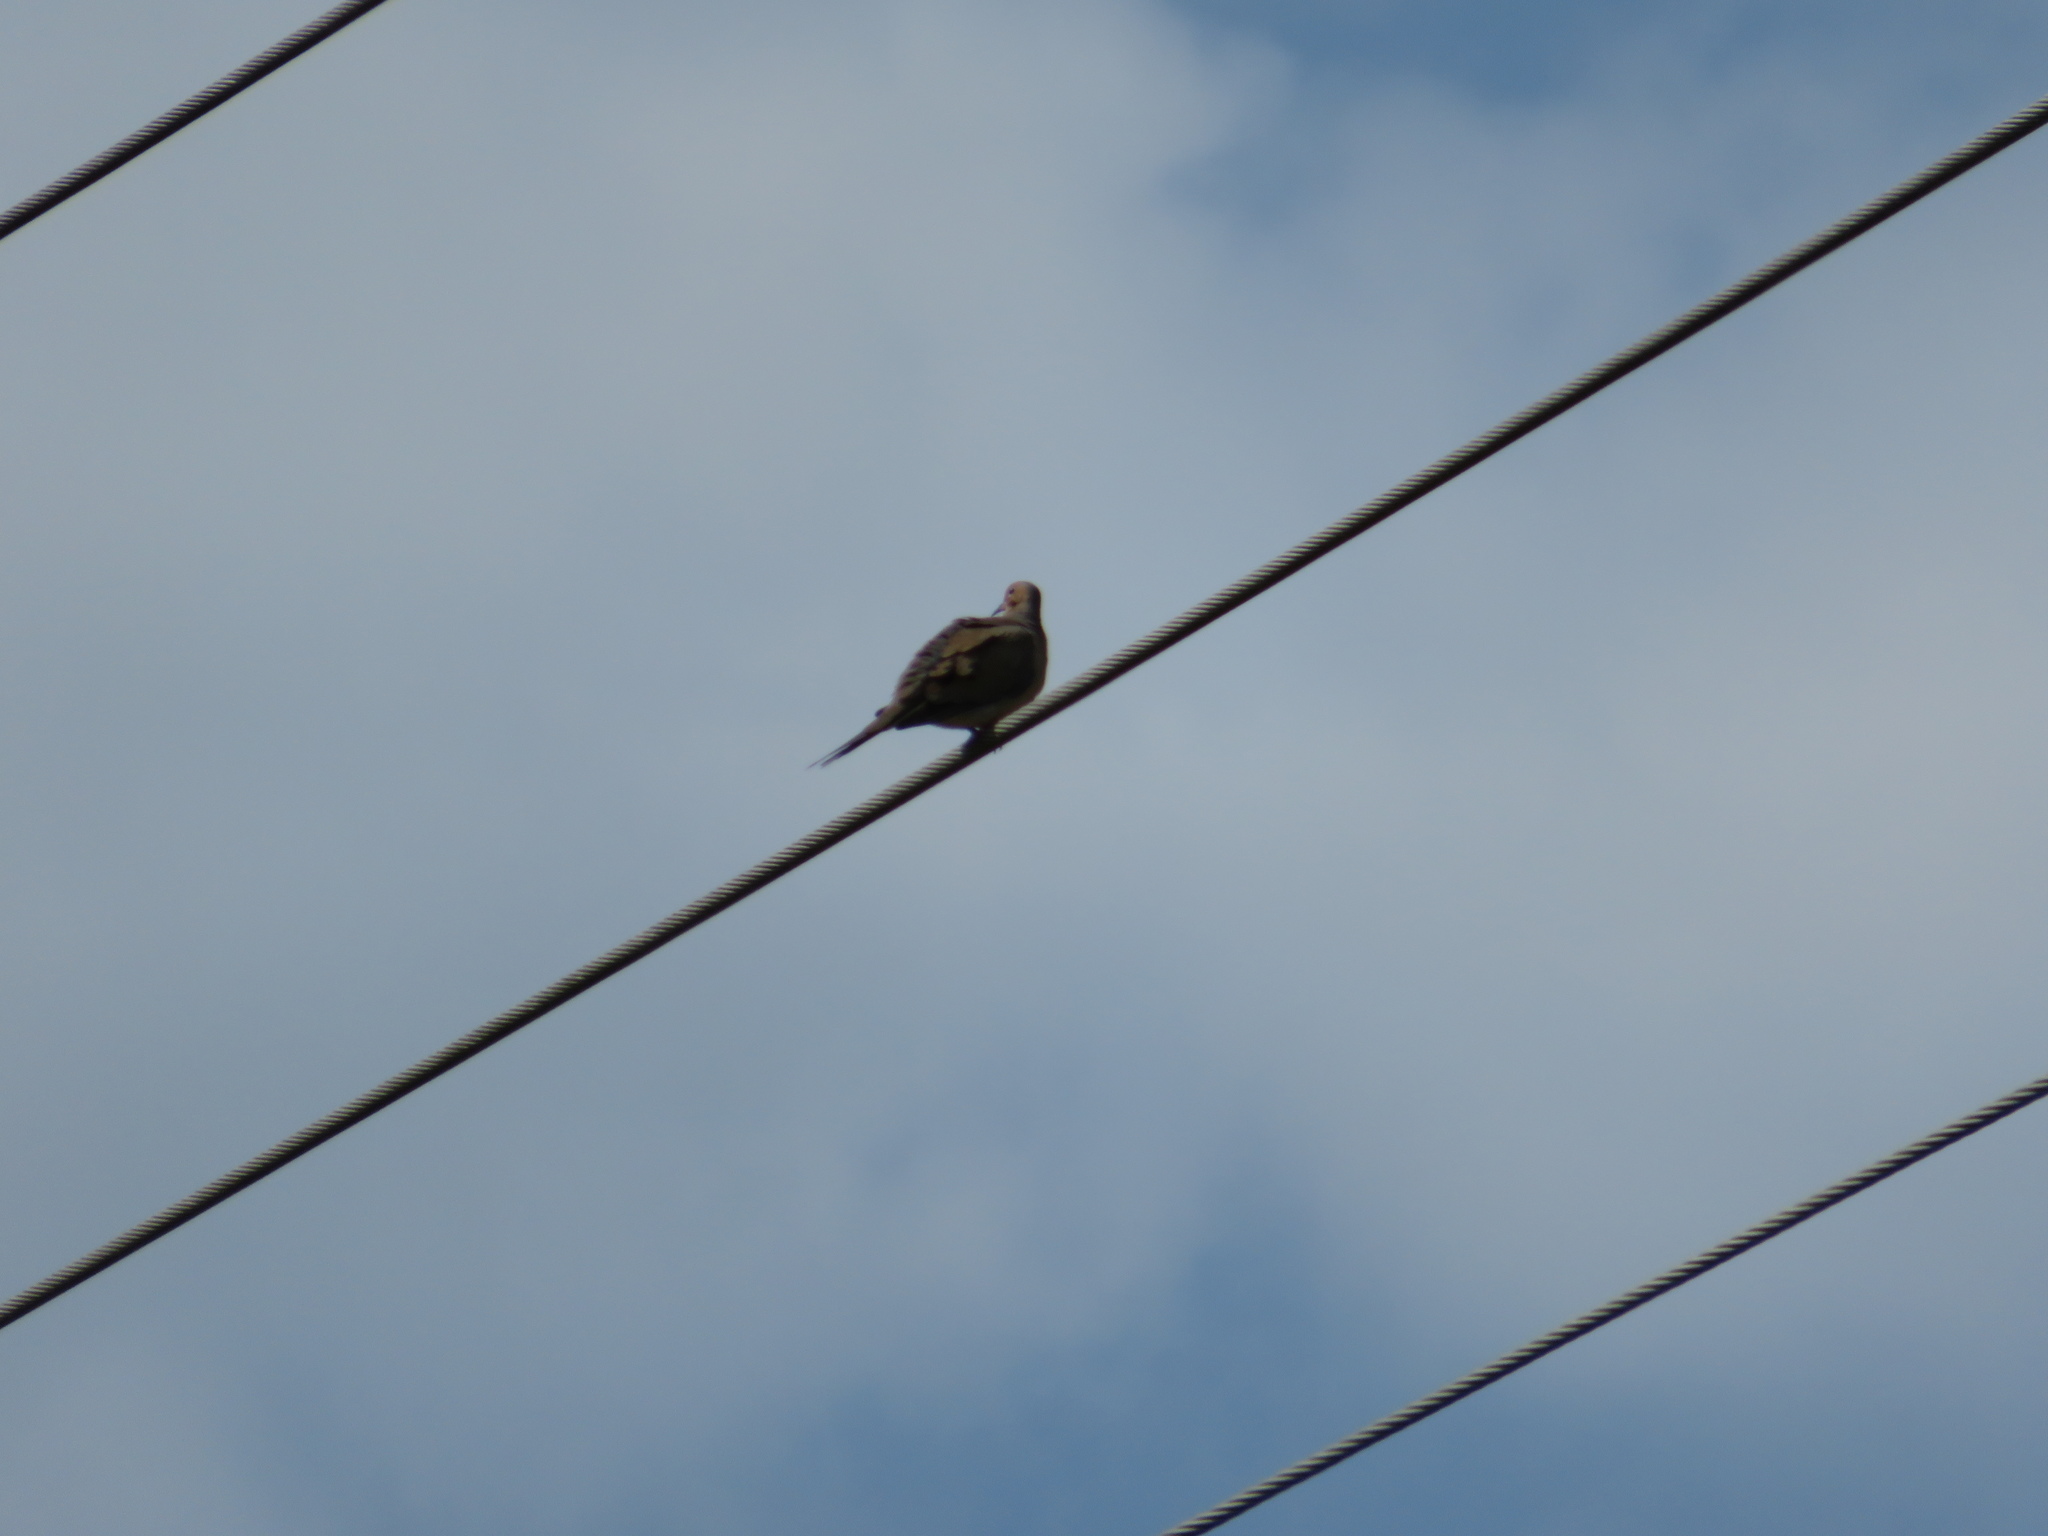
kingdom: Animalia
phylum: Chordata
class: Aves
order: Columbiformes
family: Columbidae
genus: Zenaida
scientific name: Zenaida macroura
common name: Mourning dove
